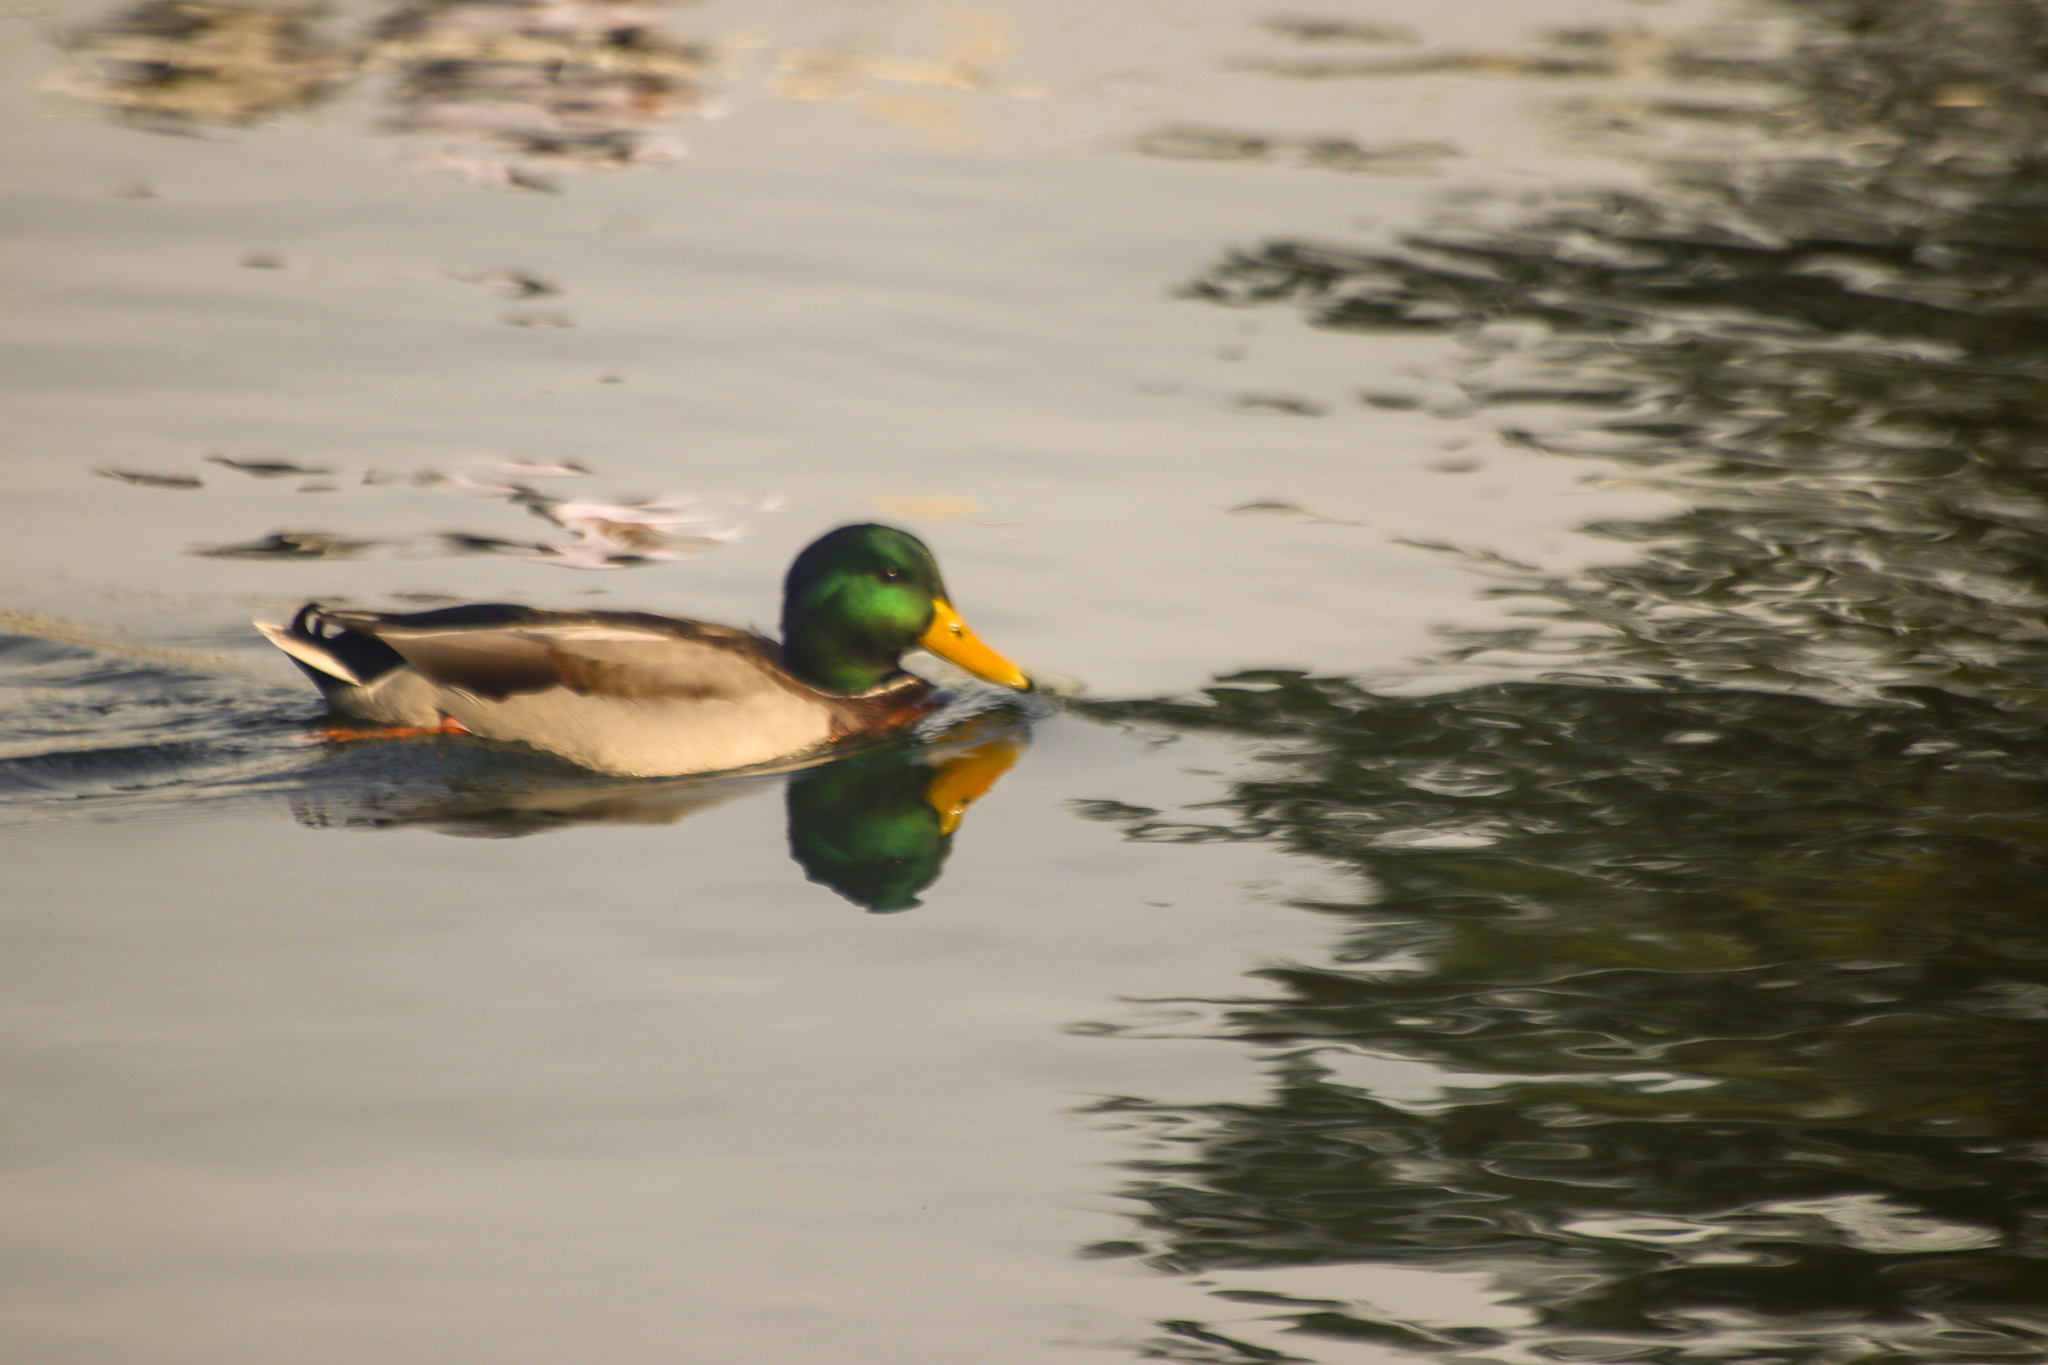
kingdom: Animalia
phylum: Chordata
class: Aves
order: Anseriformes
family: Anatidae
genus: Anas
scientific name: Anas platyrhynchos
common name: Mallard
